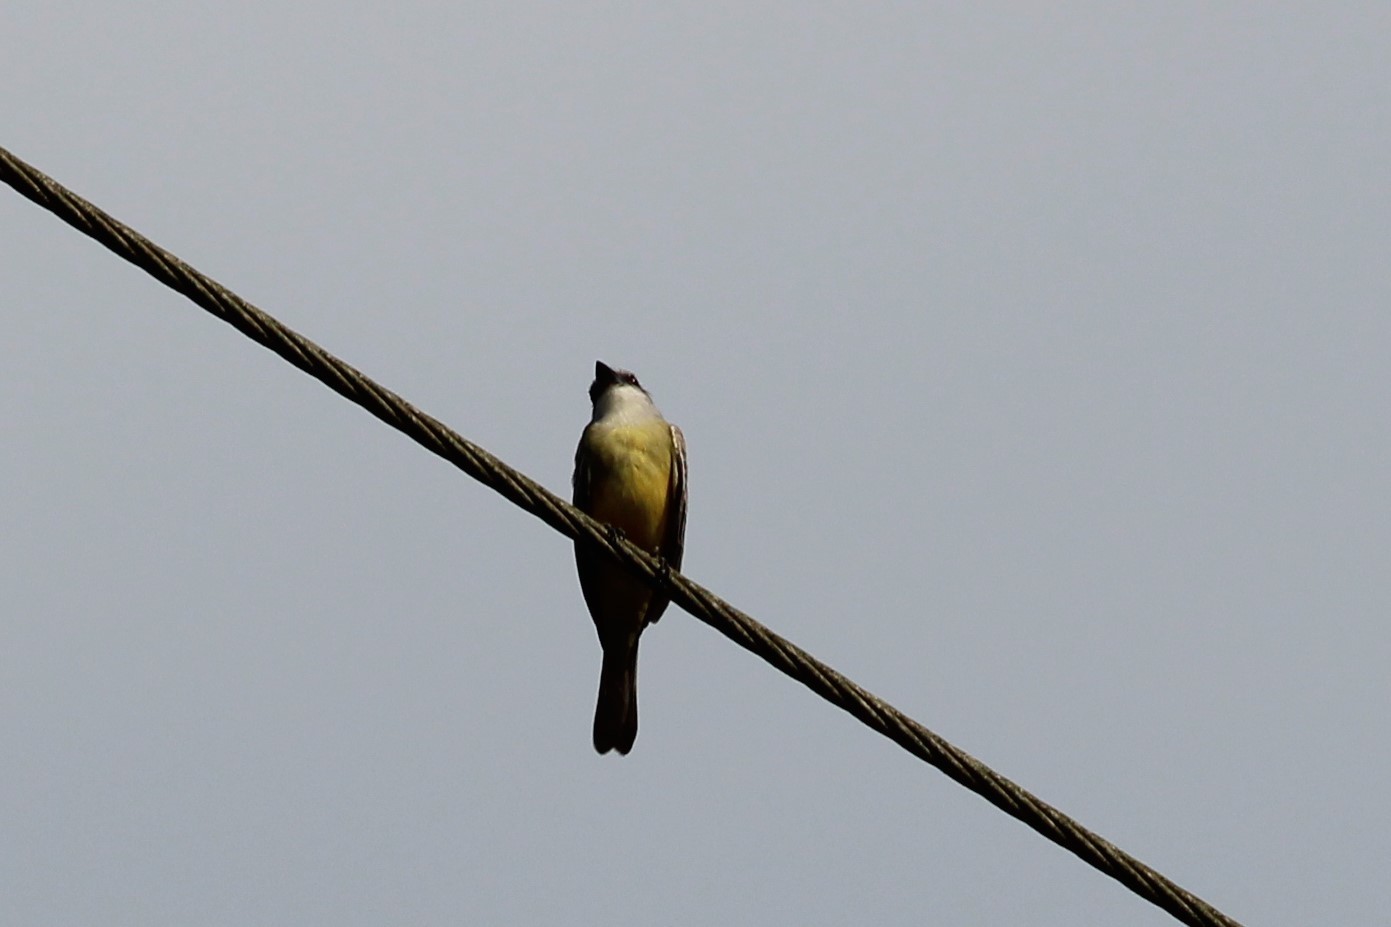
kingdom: Animalia
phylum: Chordata
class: Aves
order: Passeriformes
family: Tyrannidae
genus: Tyrannus
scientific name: Tyrannus melancholicus
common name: Tropical kingbird
